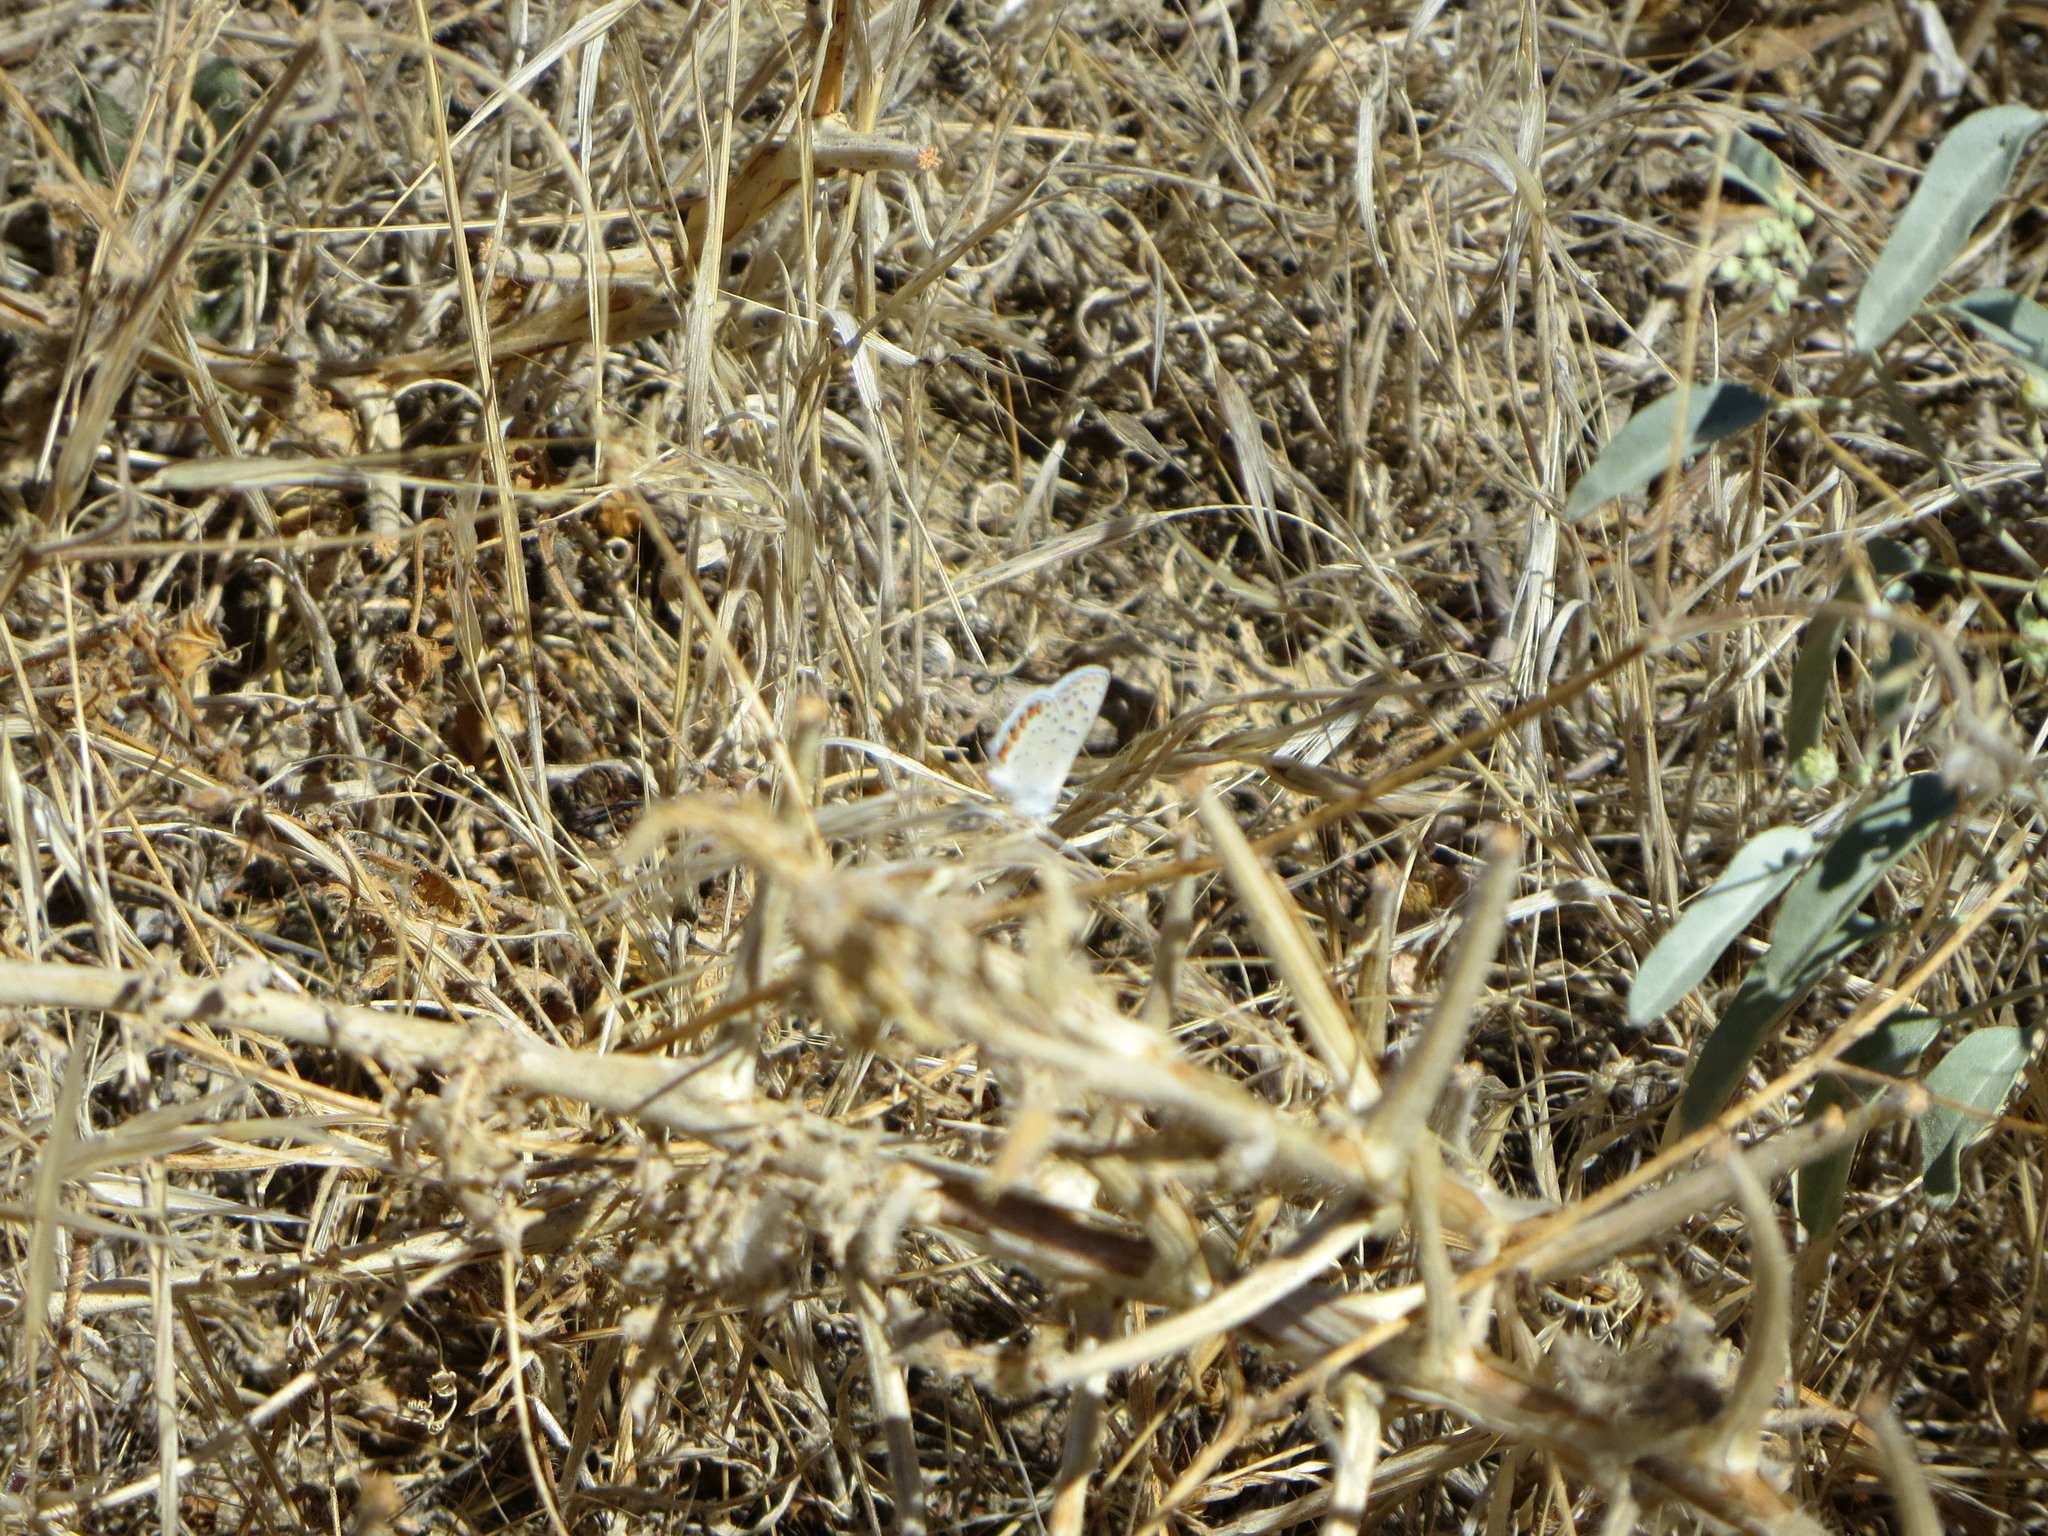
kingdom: Animalia
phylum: Arthropoda
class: Insecta
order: Lepidoptera
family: Lycaenidae
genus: Icaricia
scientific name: Icaricia acmon
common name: Acmon blue
